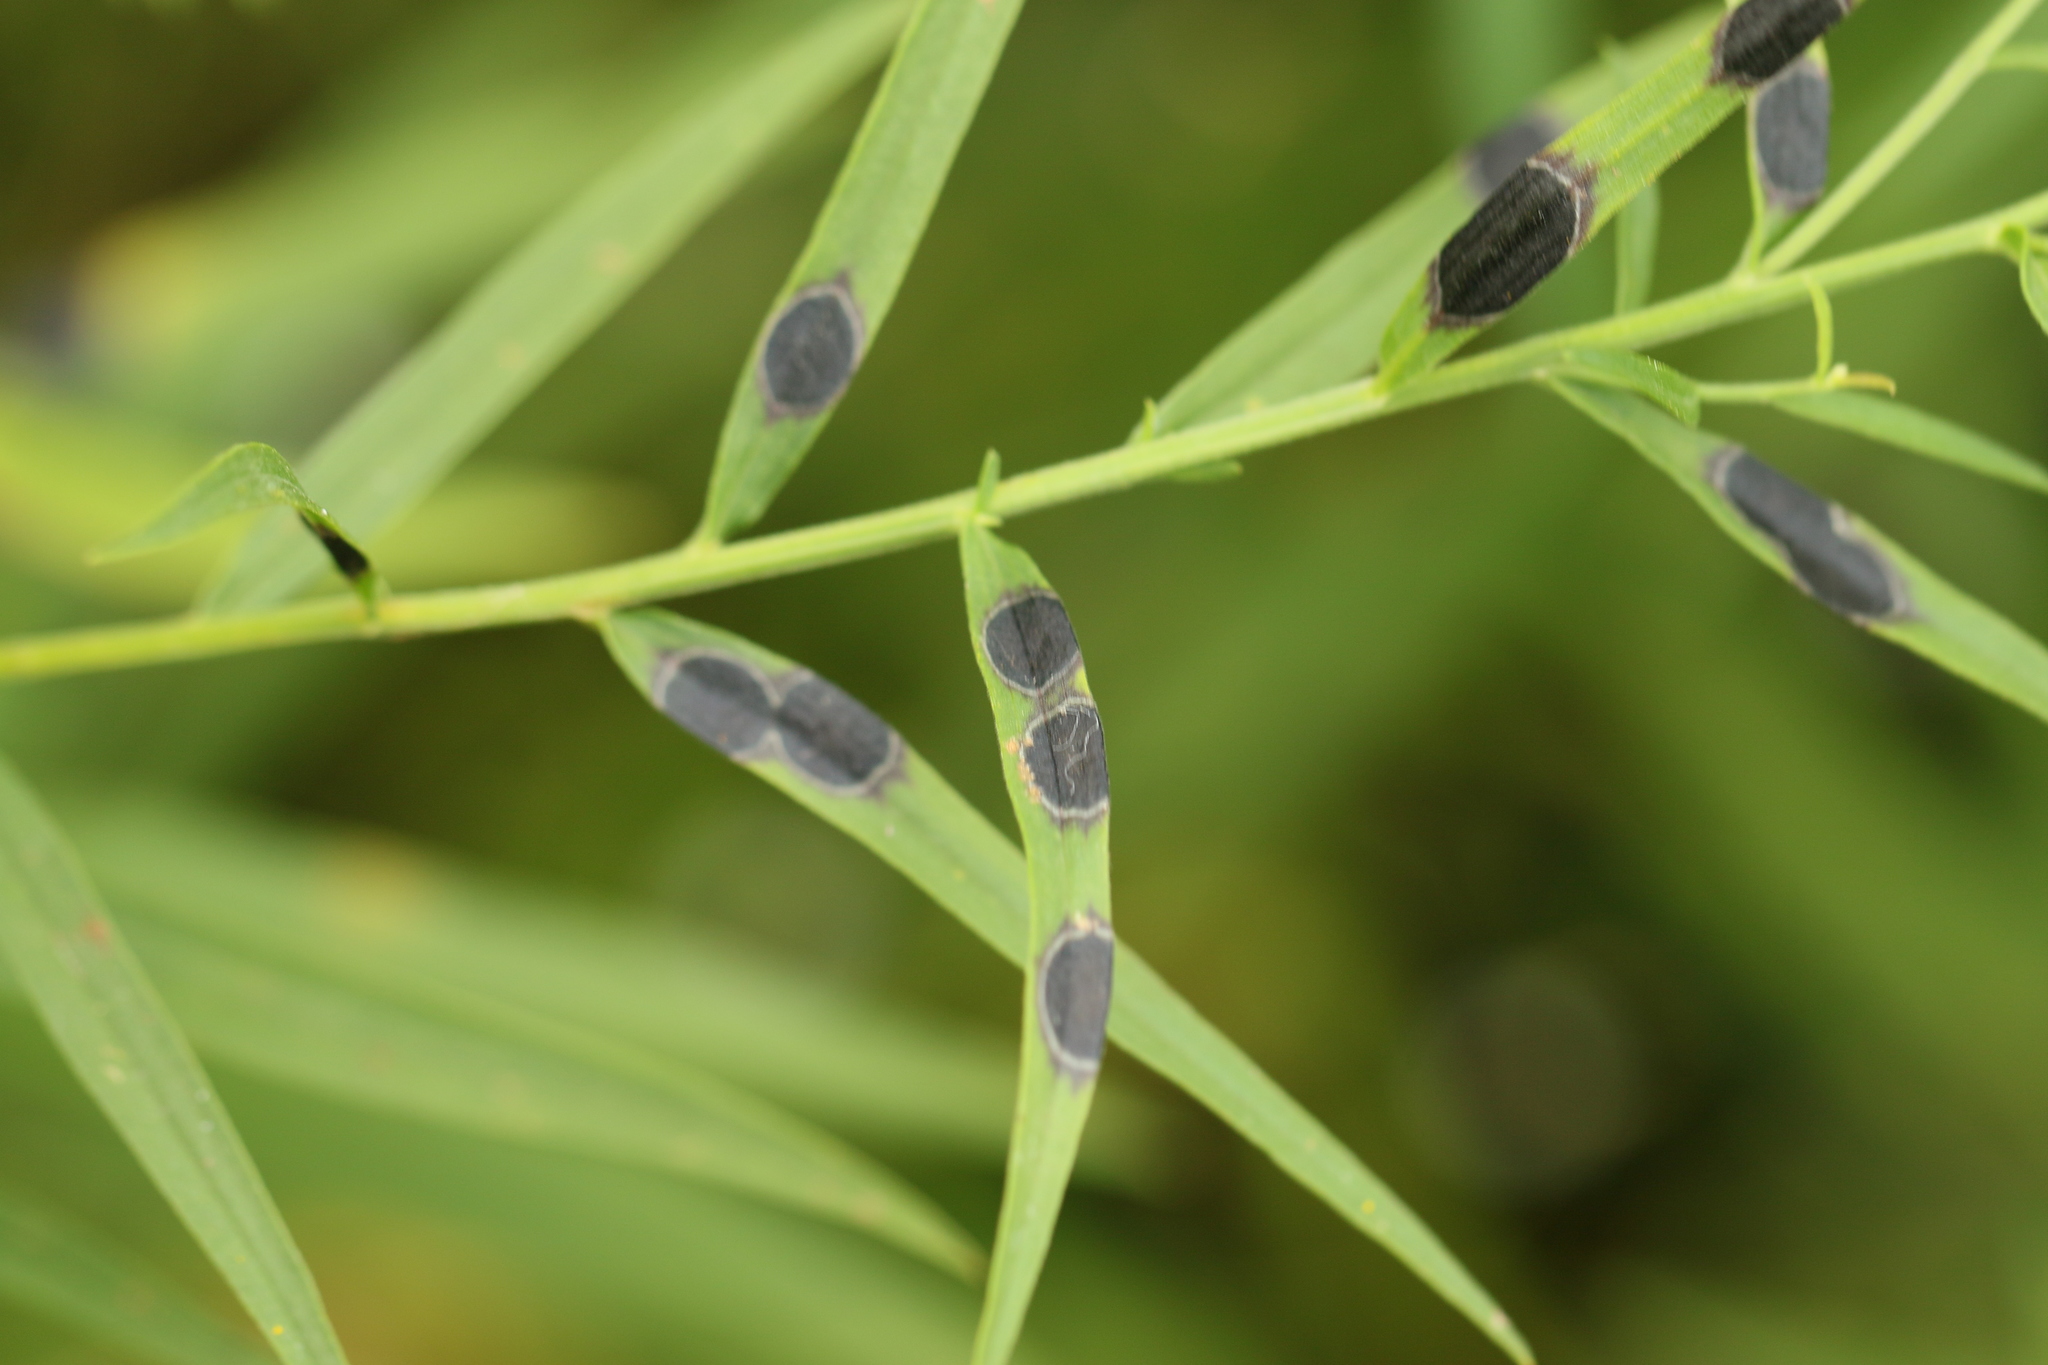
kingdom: Animalia
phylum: Arthropoda
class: Insecta
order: Diptera
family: Cecidomyiidae
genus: Asteromyia
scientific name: Asteromyia euthamiae
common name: Euthamia leaf gall midge
